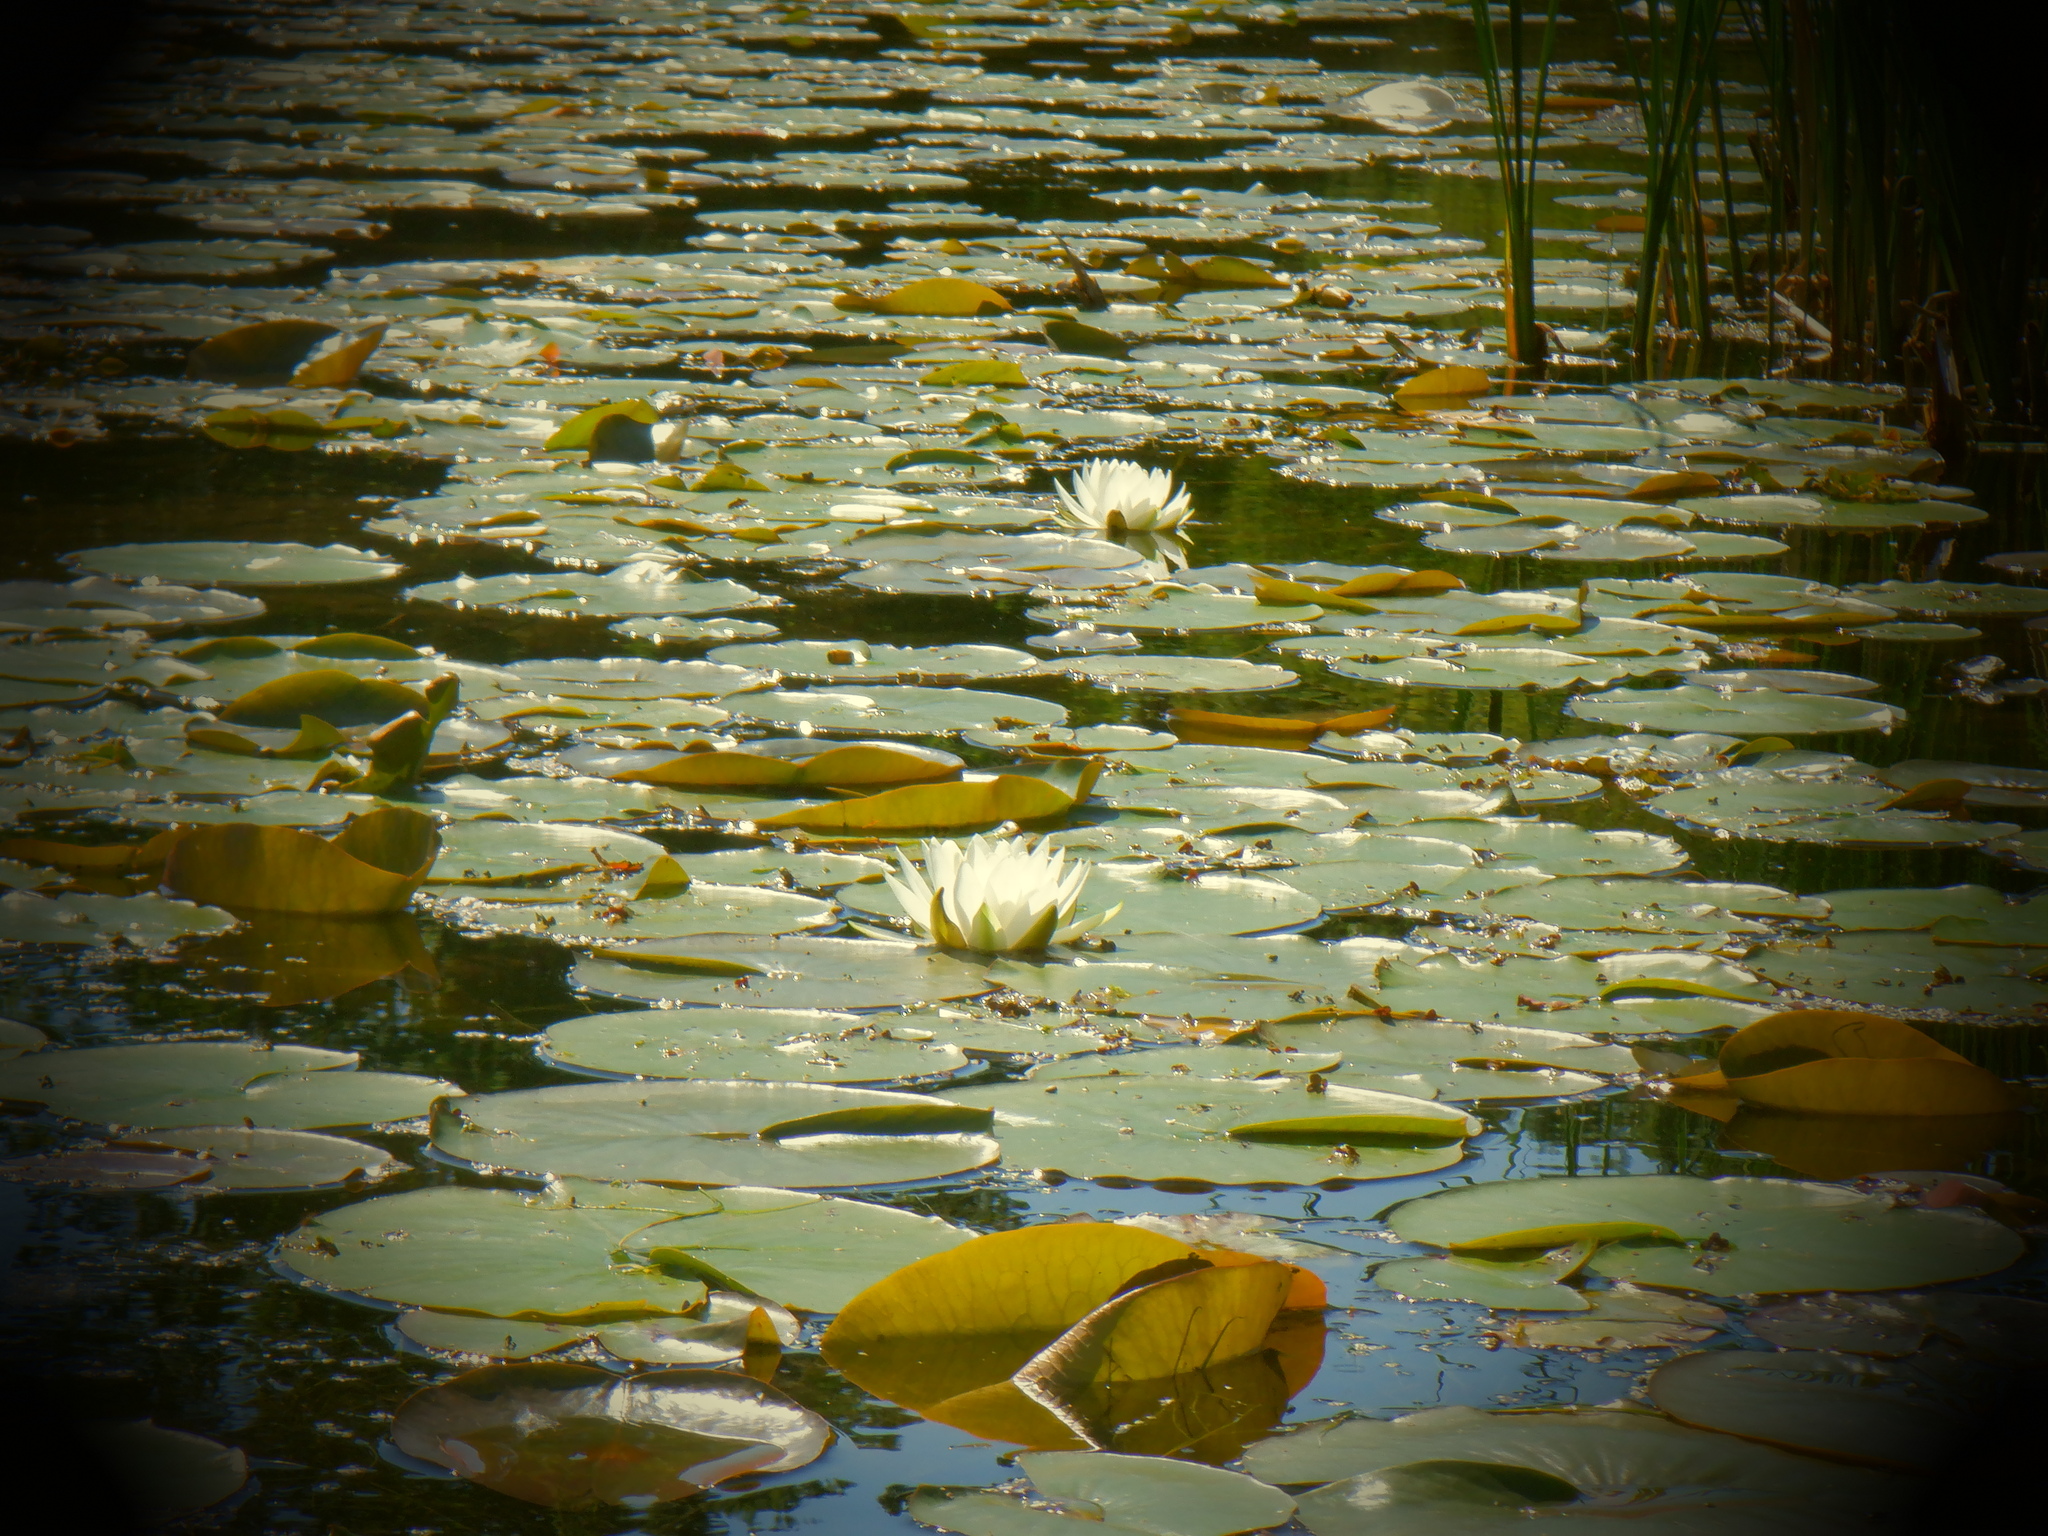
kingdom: Plantae
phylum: Tracheophyta
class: Magnoliopsida
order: Nymphaeales
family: Nymphaeaceae
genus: Nymphaea
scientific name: Nymphaea odorata
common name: Fragrant water-lily
